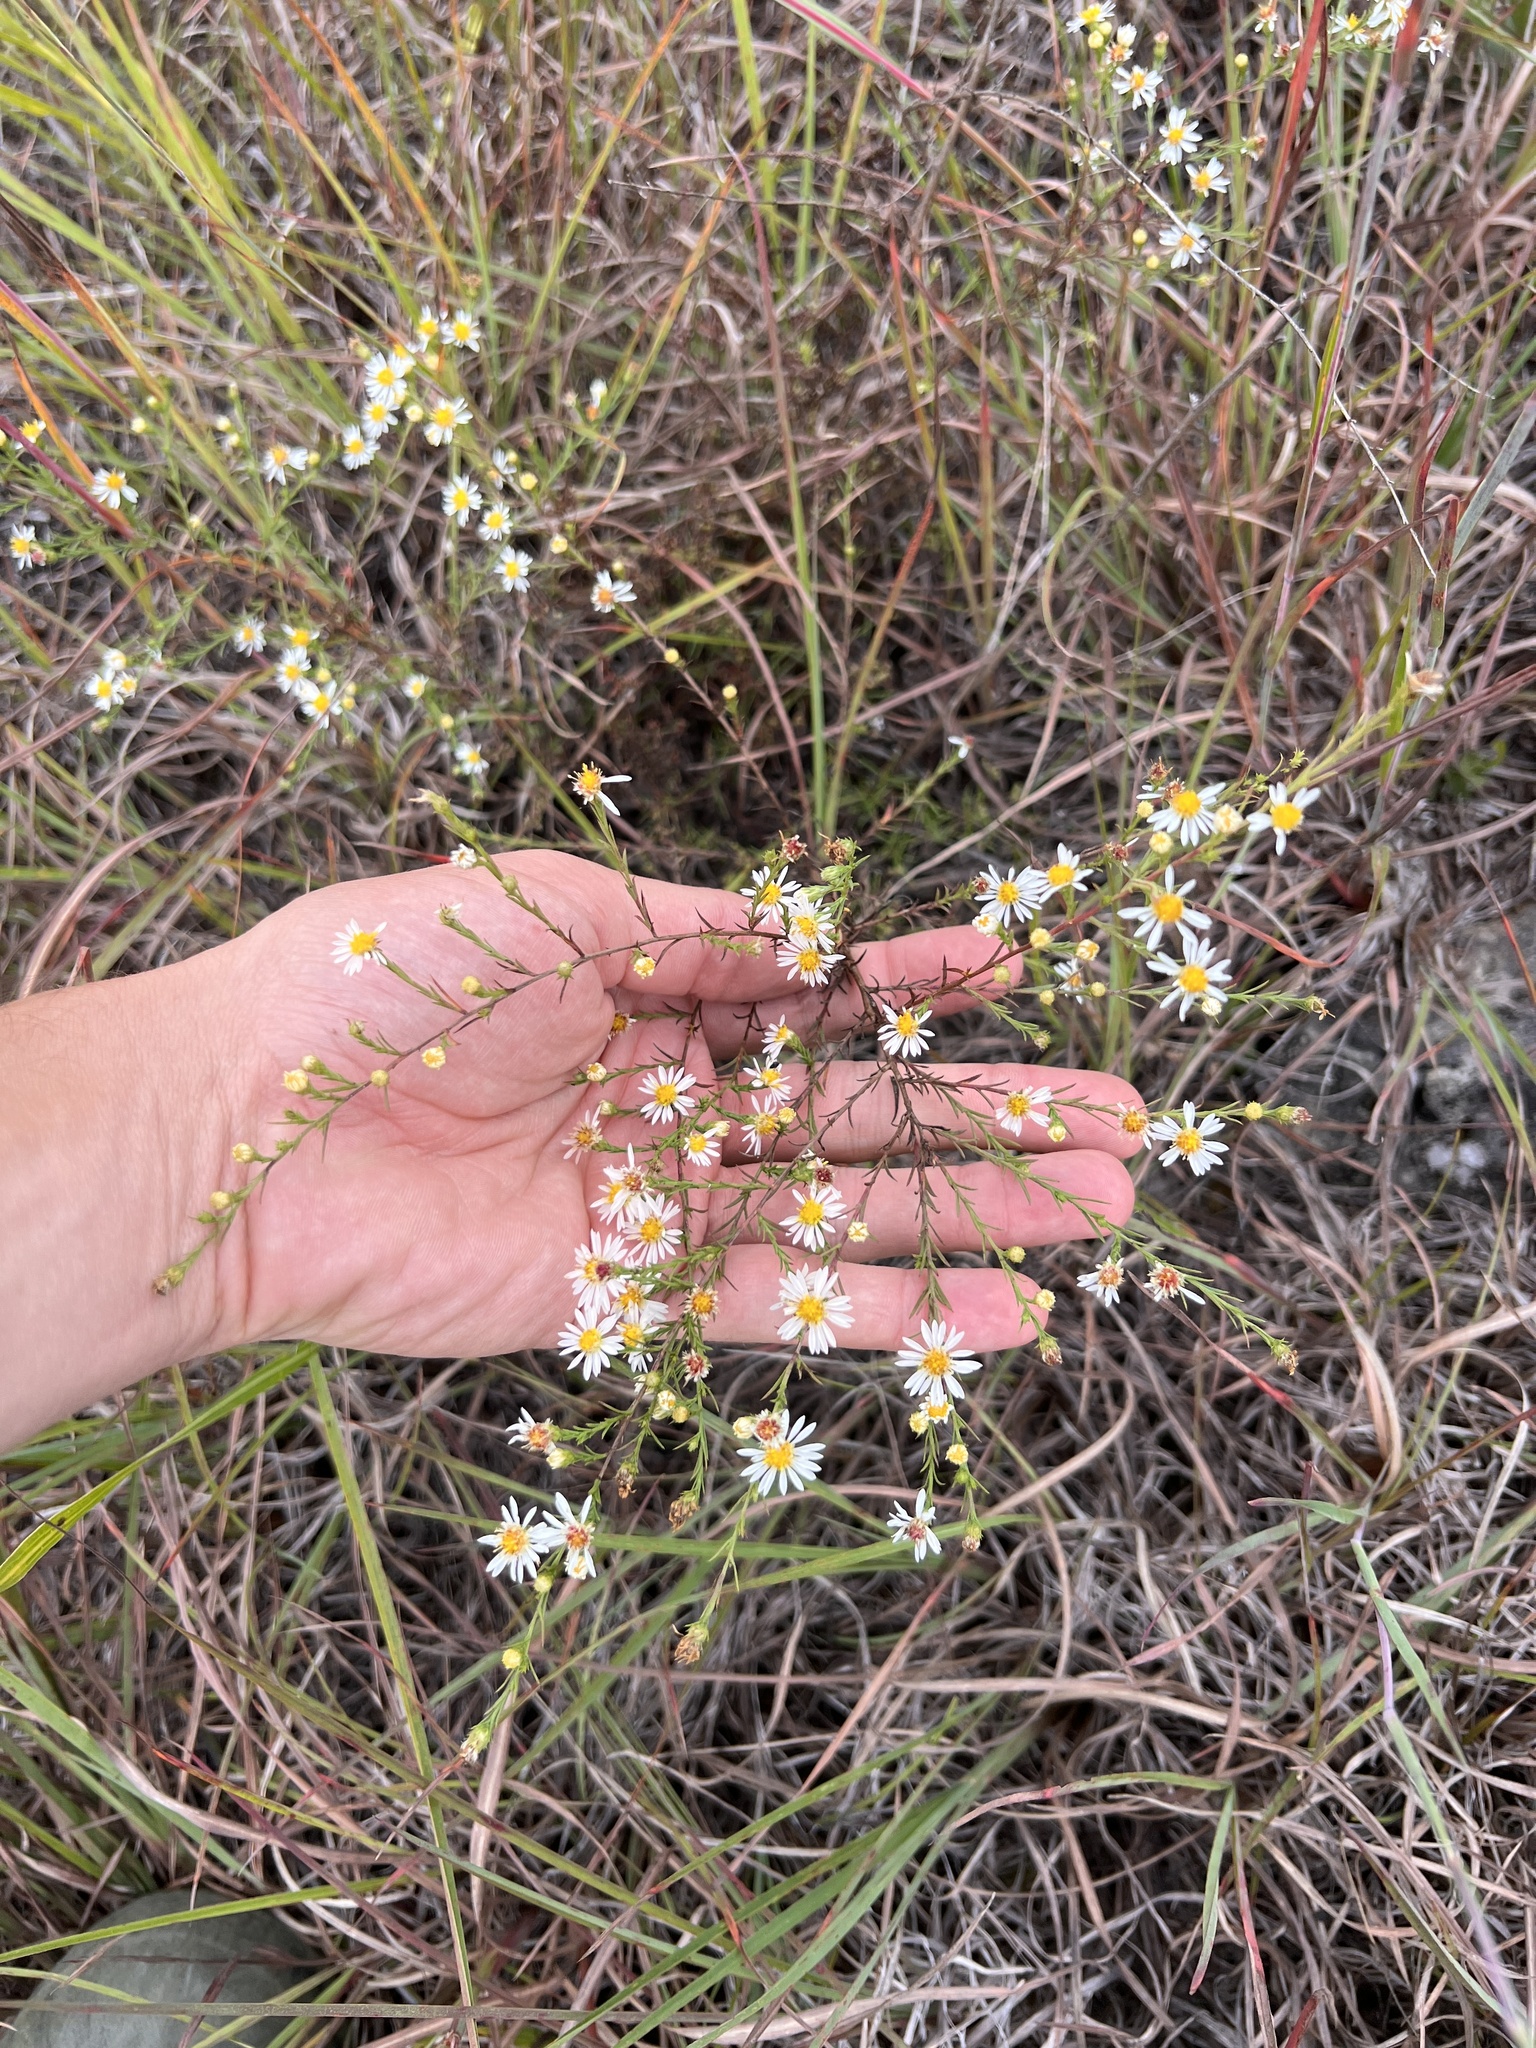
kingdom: Plantae
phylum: Tracheophyta
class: Magnoliopsida
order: Asterales
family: Asteraceae
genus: Symphyotrichum
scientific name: Symphyotrichum pilosum
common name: Awl aster
